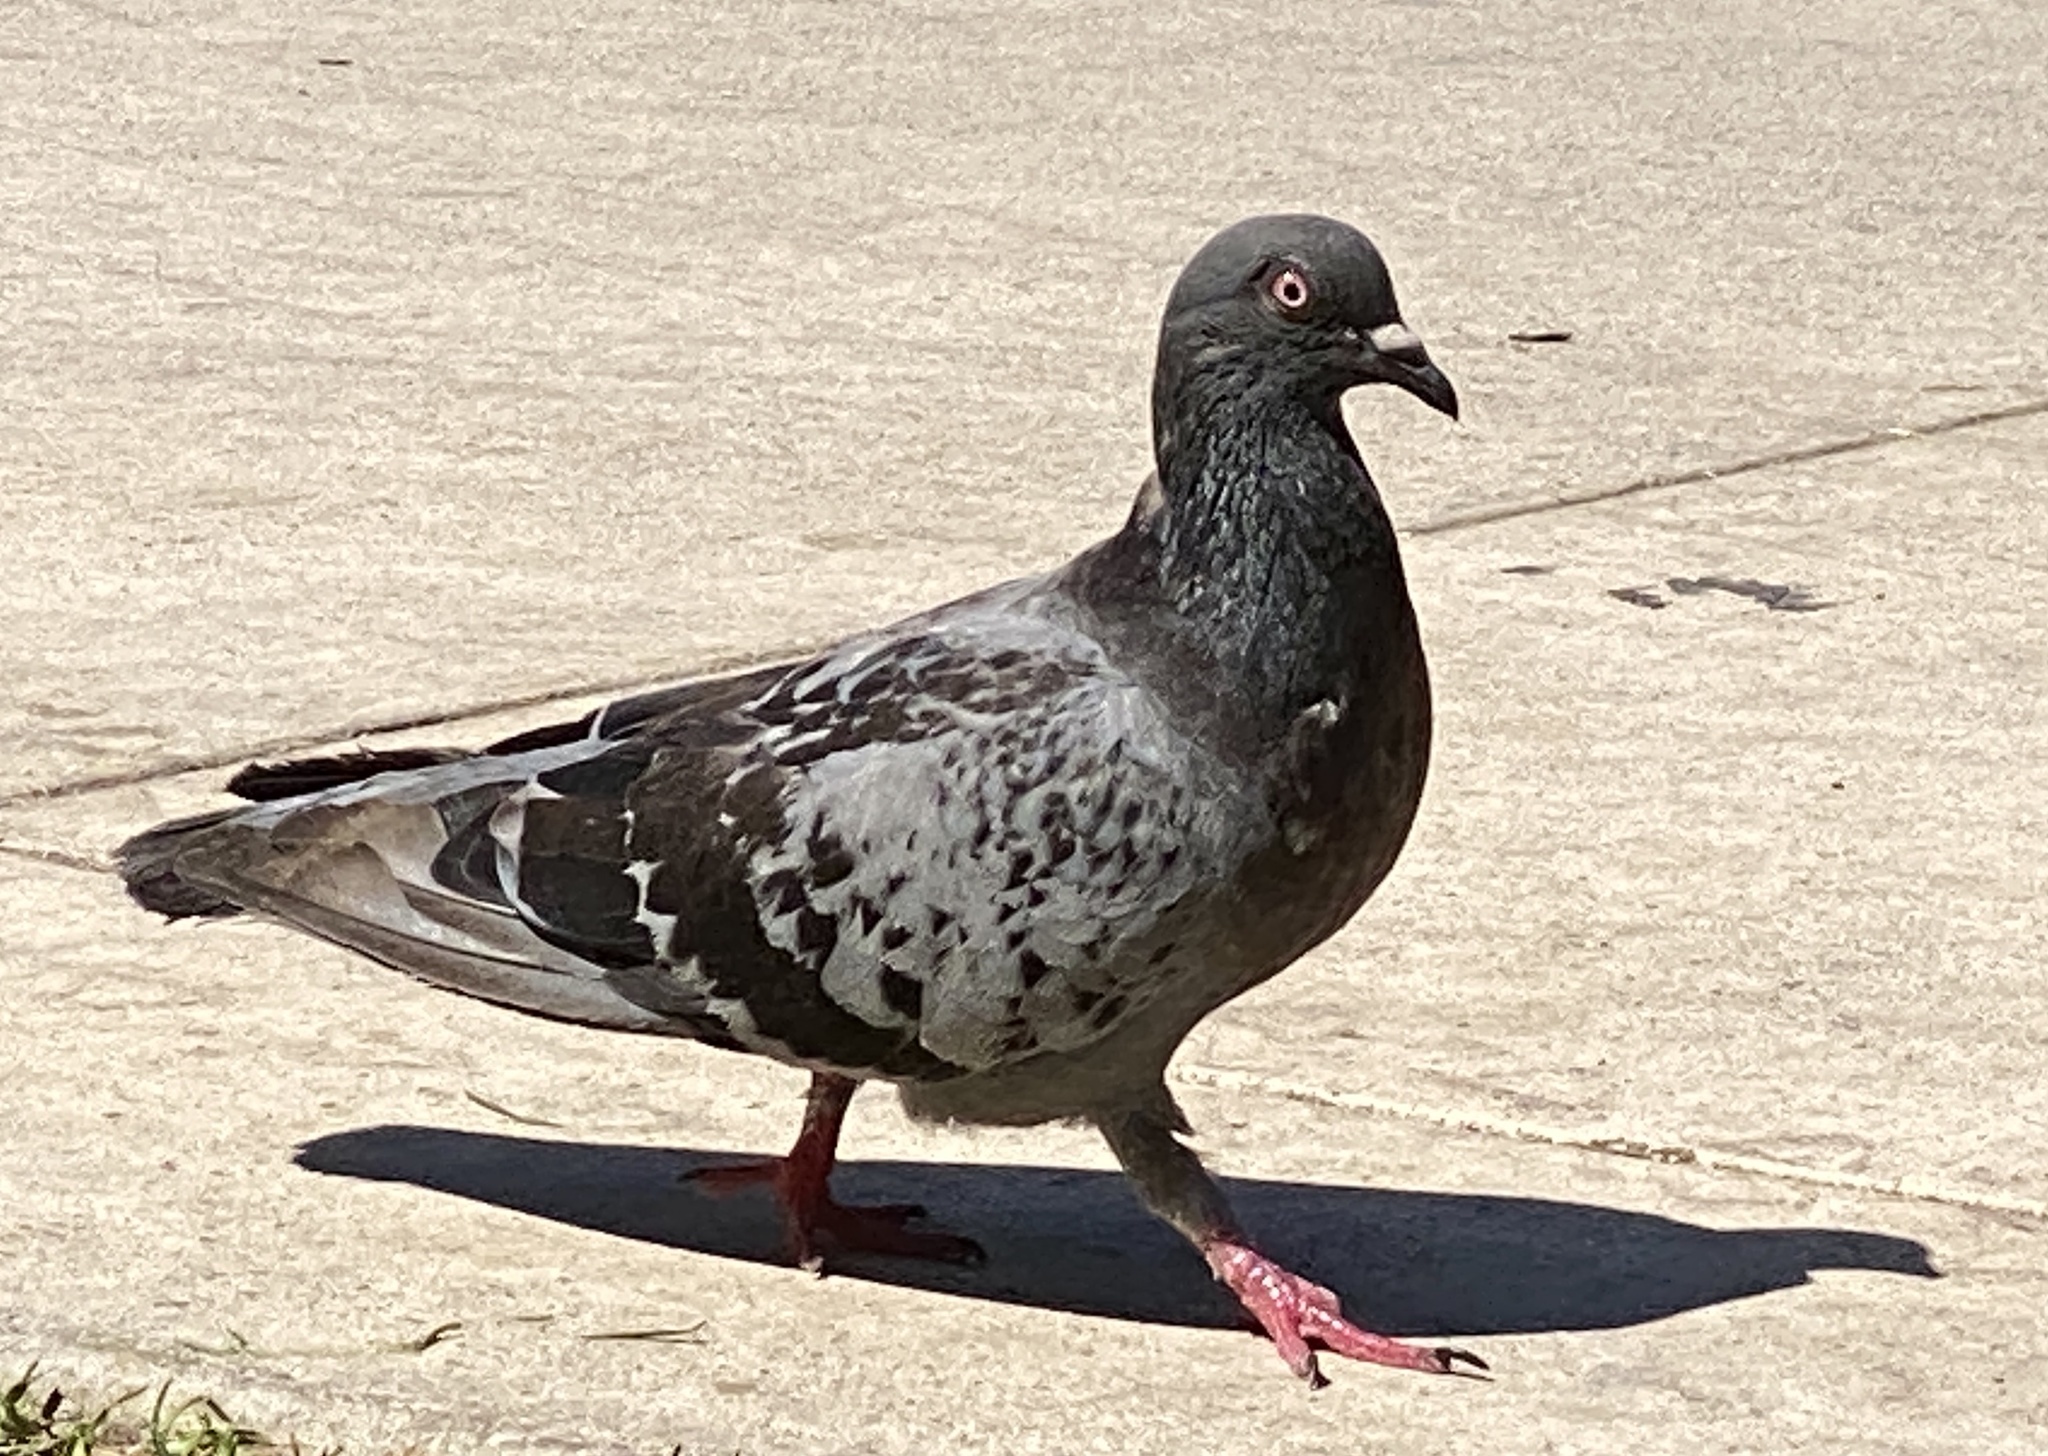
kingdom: Animalia
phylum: Chordata
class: Aves
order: Columbiformes
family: Columbidae
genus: Columba
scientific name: Columba livia
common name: Rock pigeon
